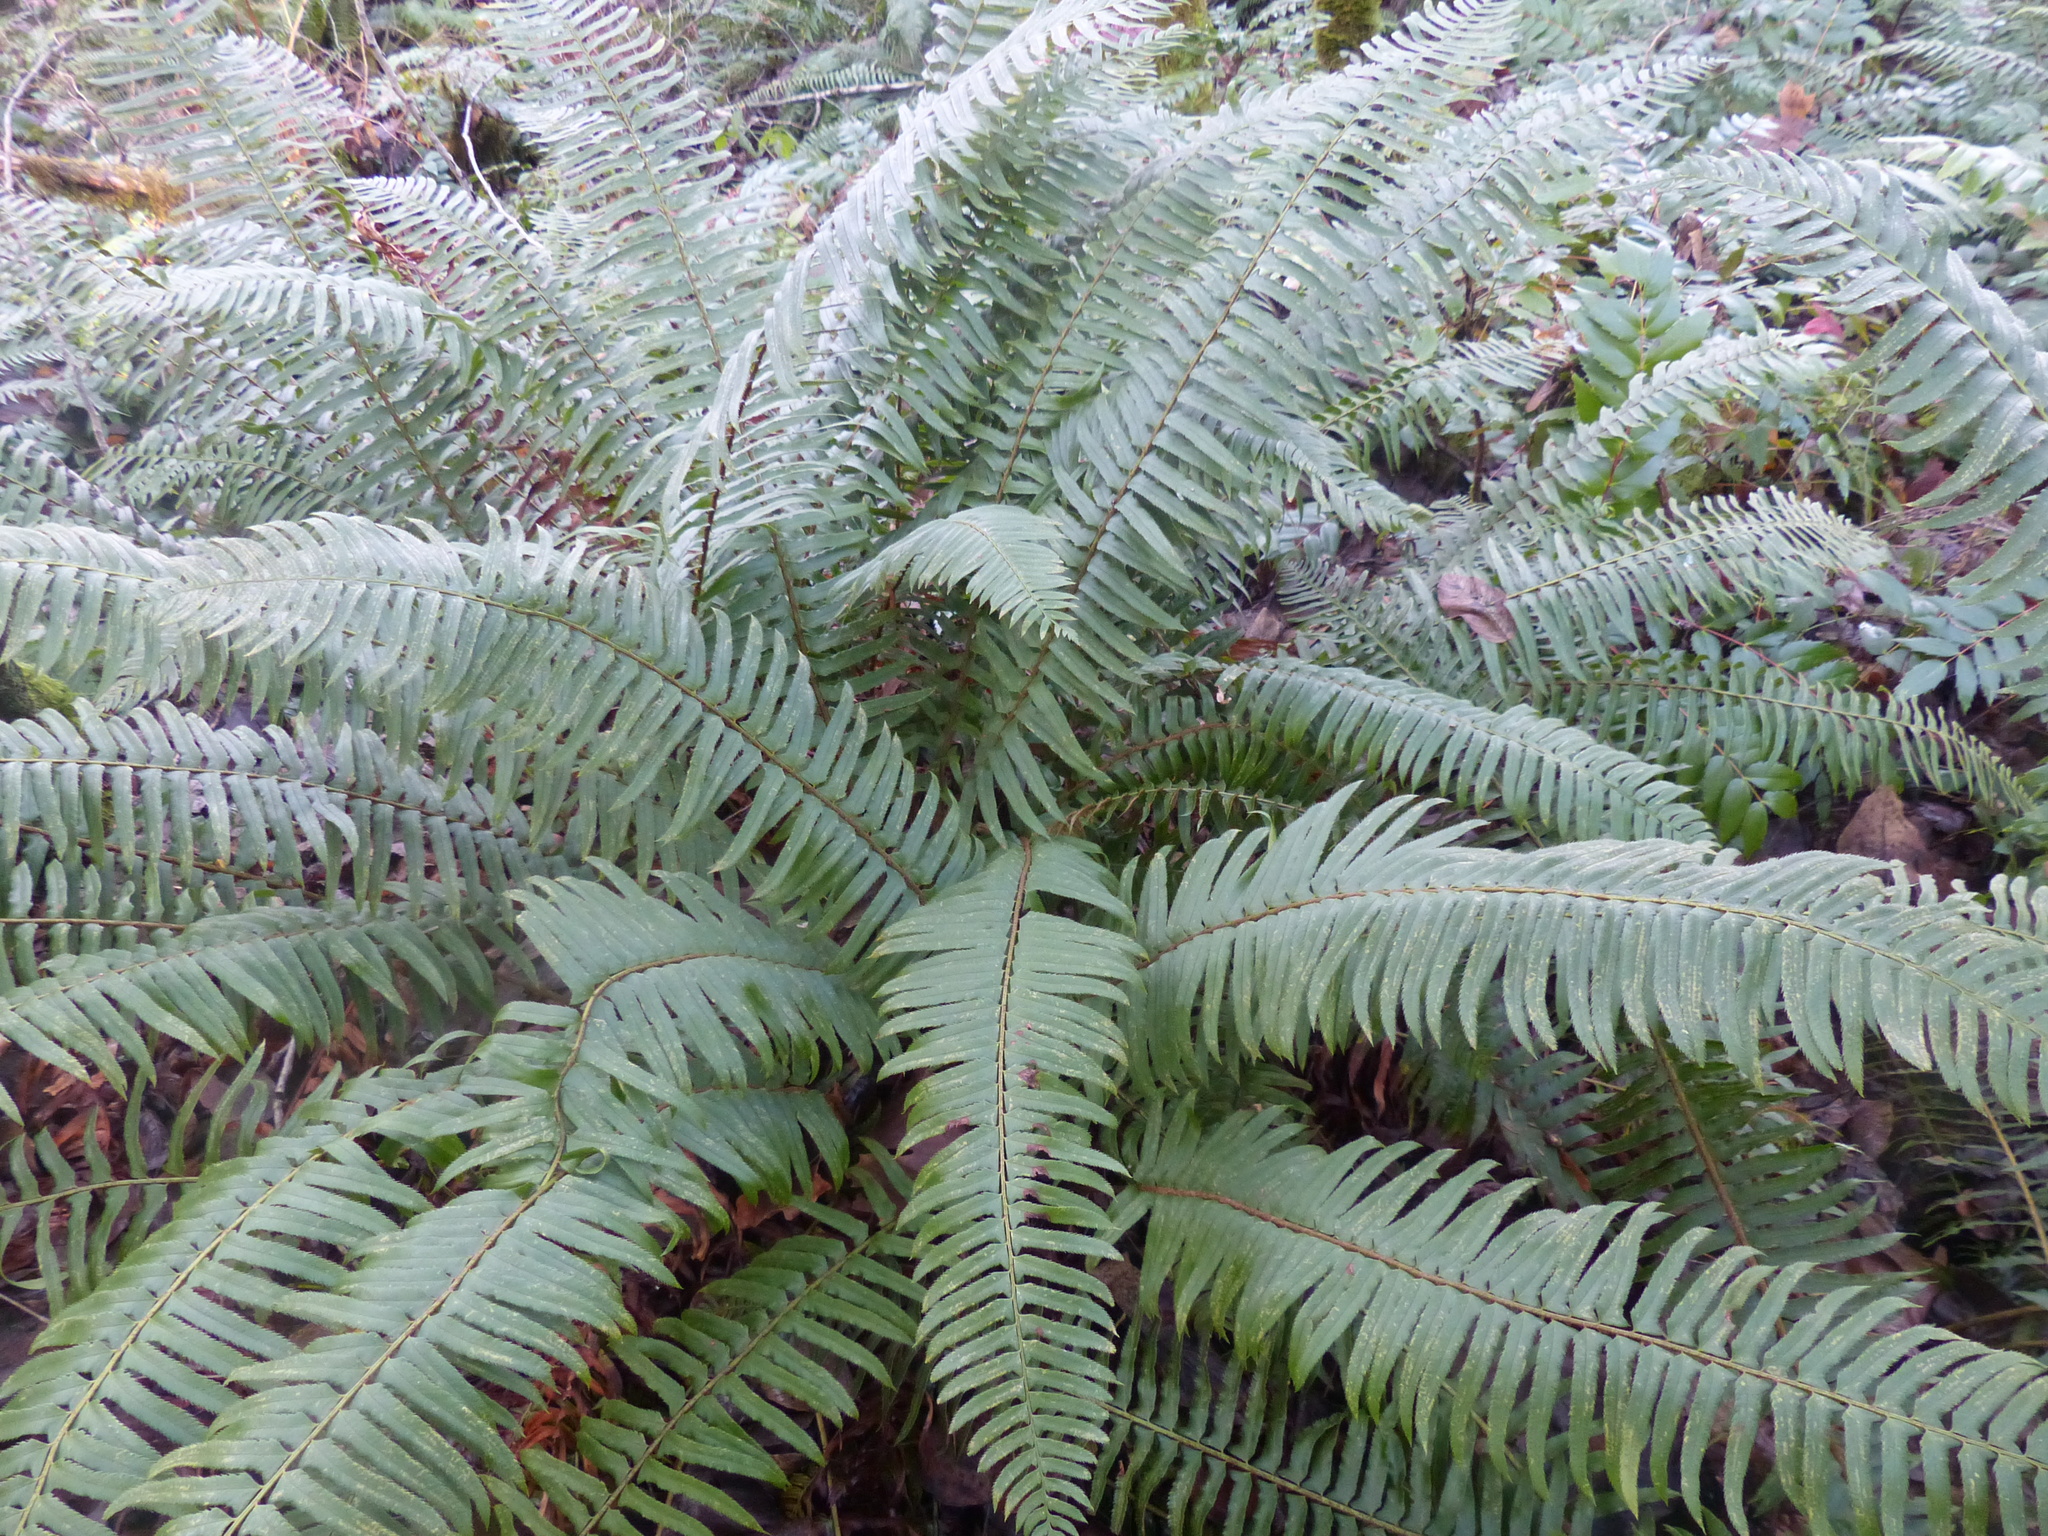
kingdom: Plantae
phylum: Tracheophyta
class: Polypodiopsida
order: Polypodiales
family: Dryopteridaceae
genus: Polystichum
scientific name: Polystichum munitum
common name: Western sword-fern
